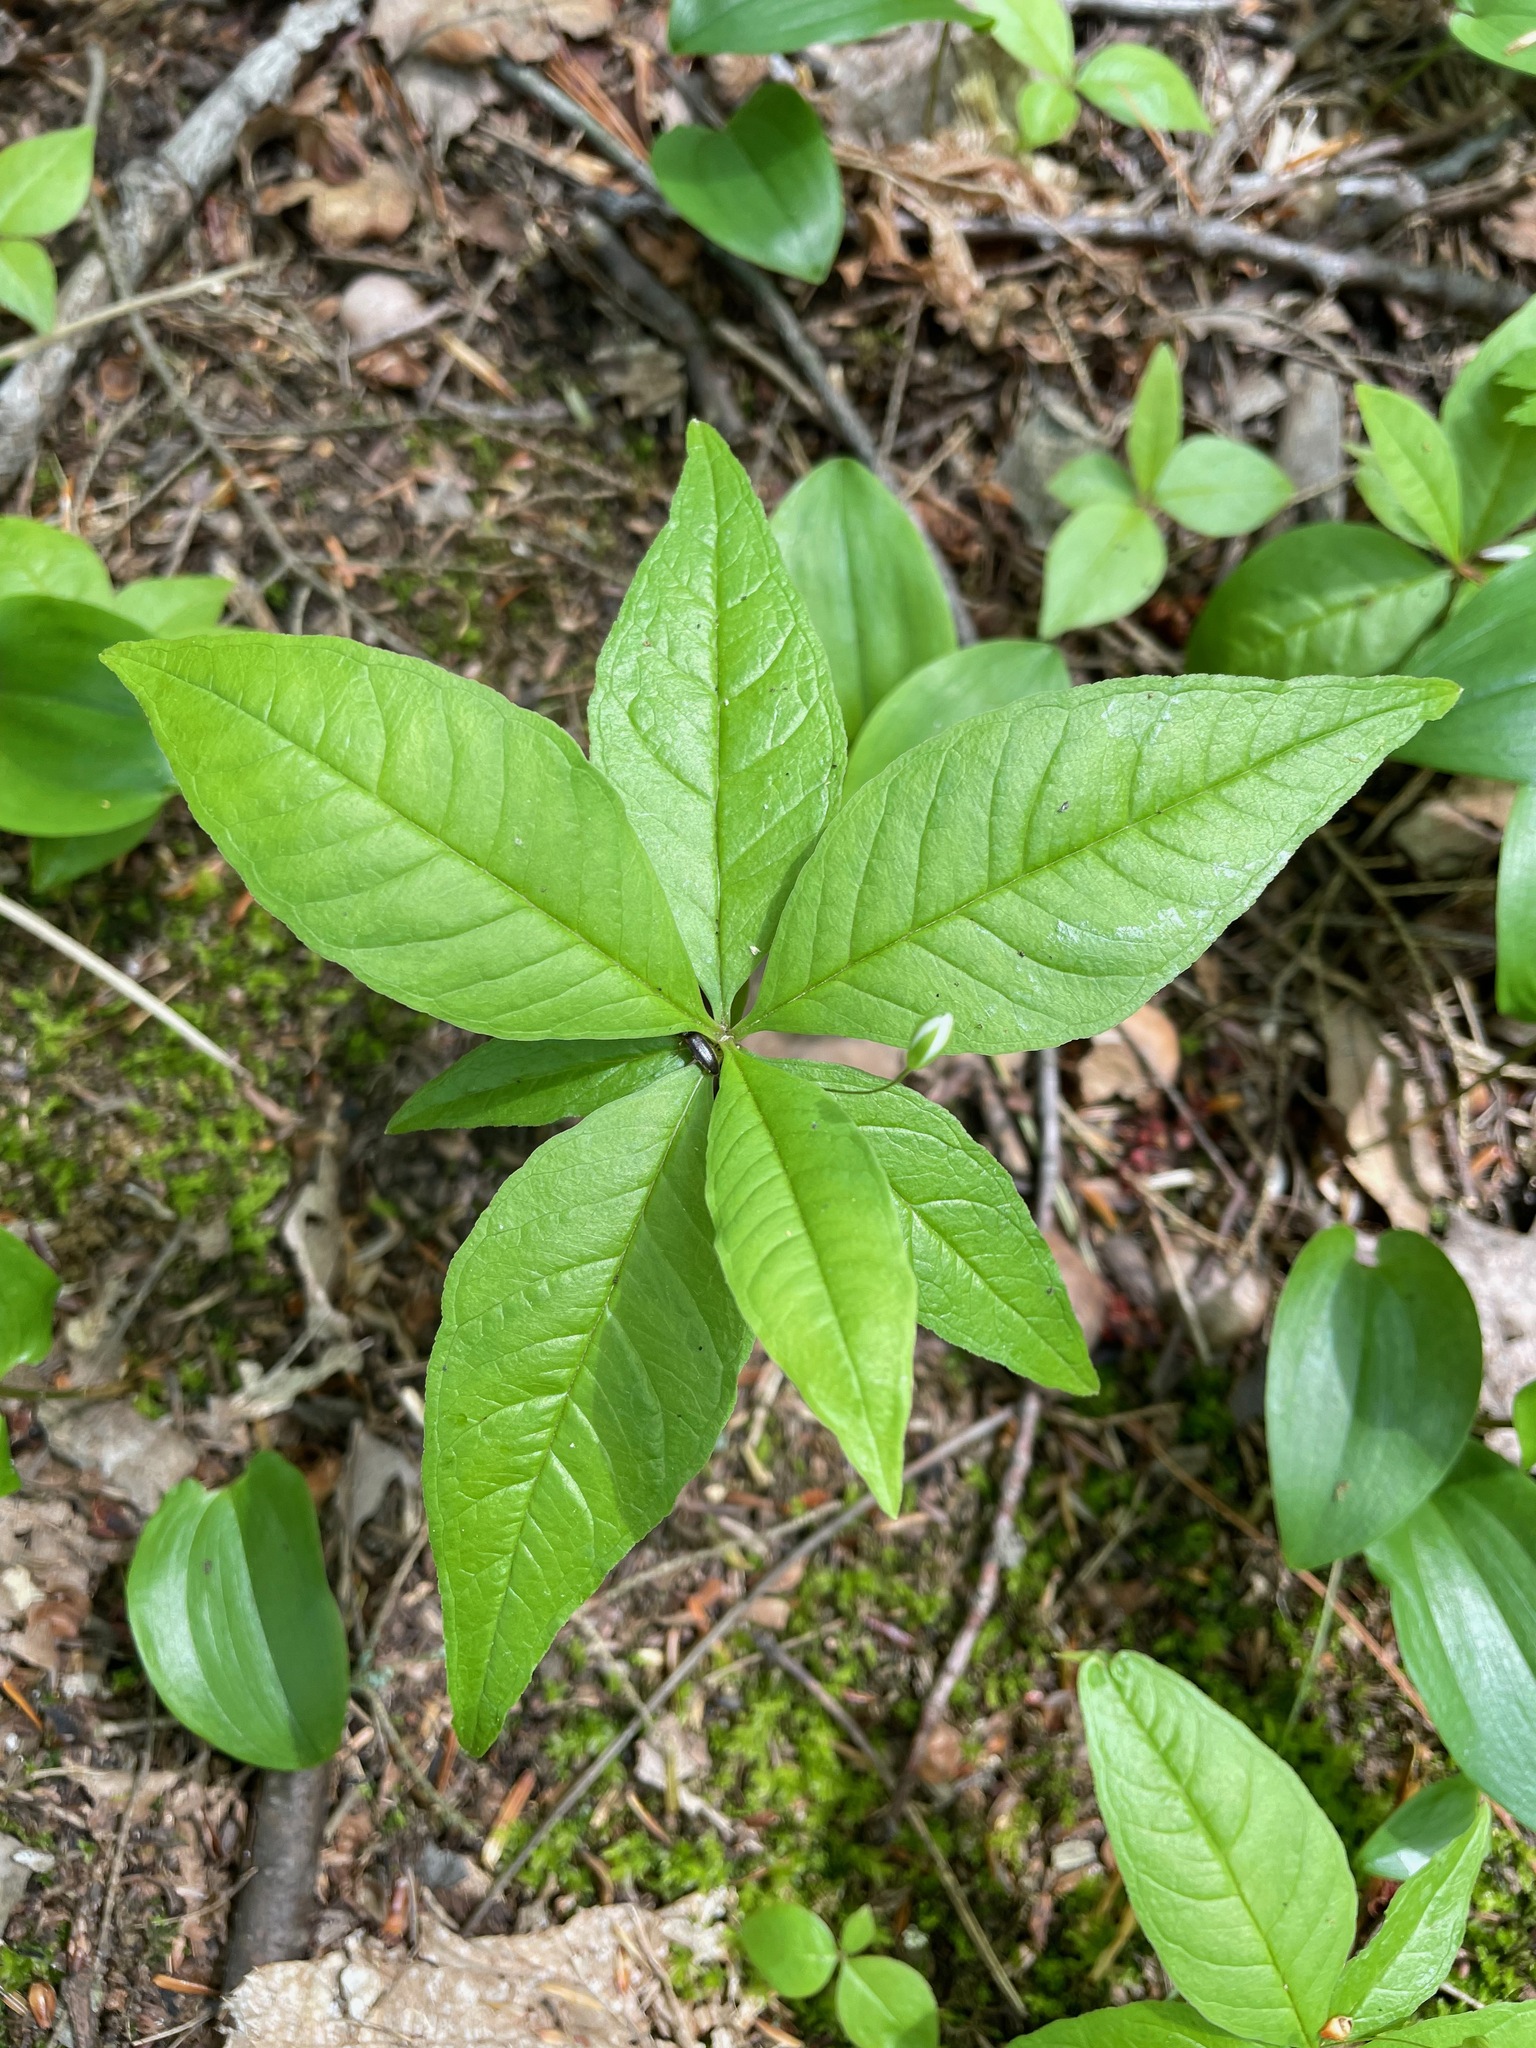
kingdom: Plantae
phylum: Tracheophyta
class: Magnoliopsida
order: Ericales
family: Primulaceae
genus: Lysimachia
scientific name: Lysimachia borealis
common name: American starflower
